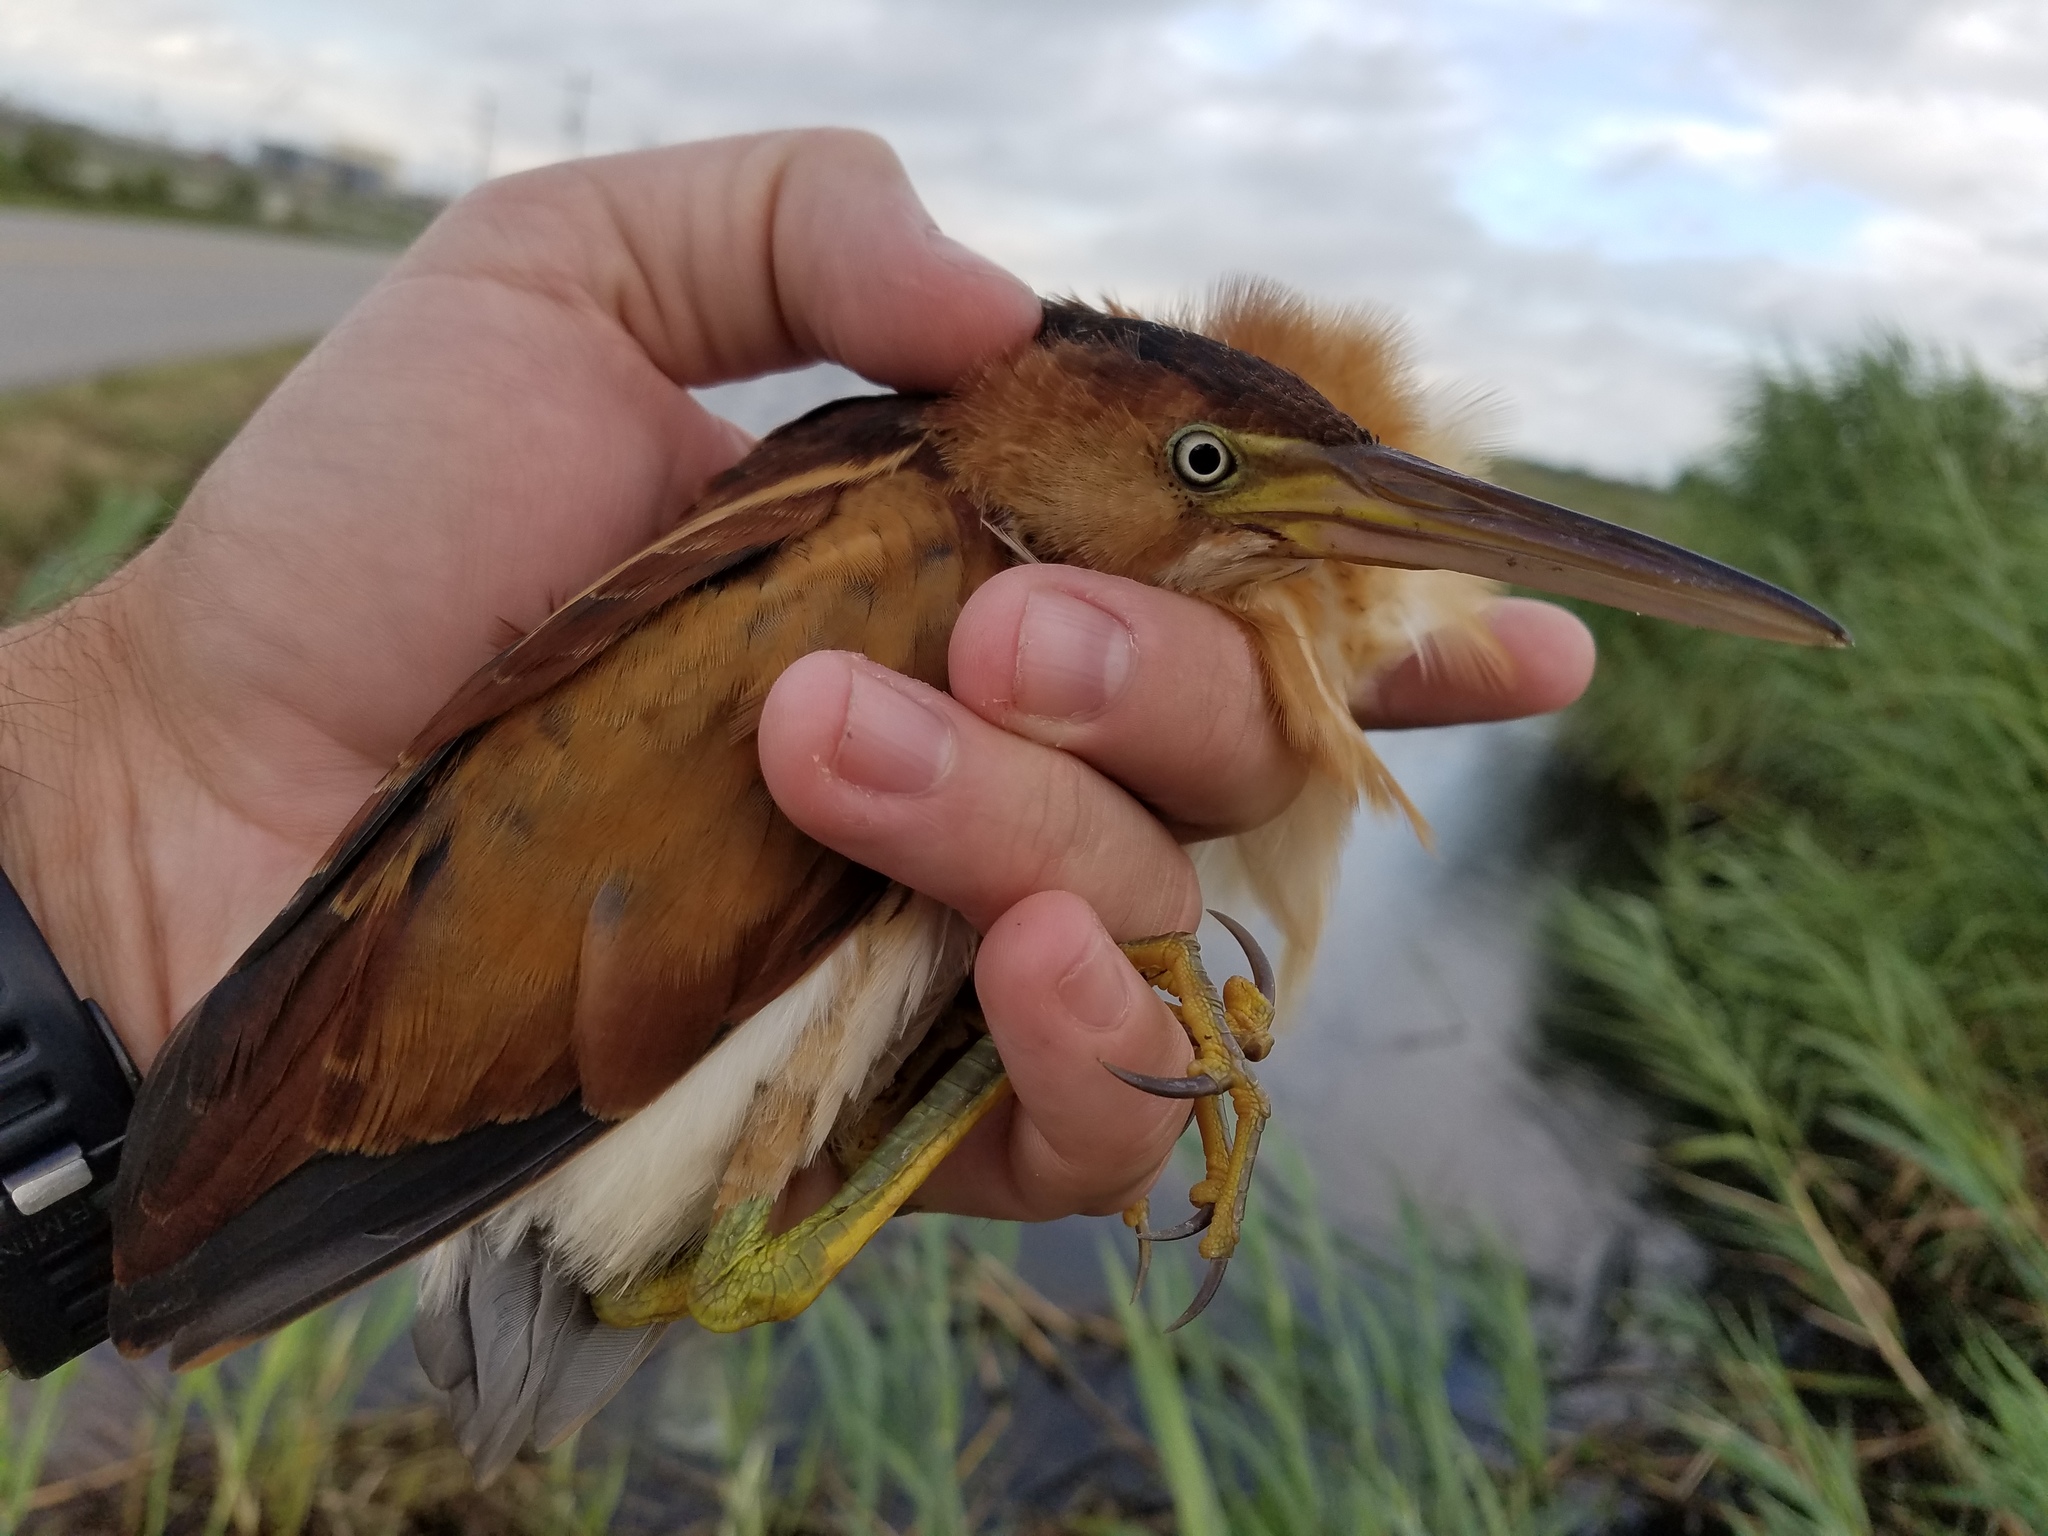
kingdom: Animalia
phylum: Chordata
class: Aves
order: Pelecaniformes
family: Ardeidae
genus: Ixobrychus
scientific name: Ixobrychus exilis
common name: Least bittern
